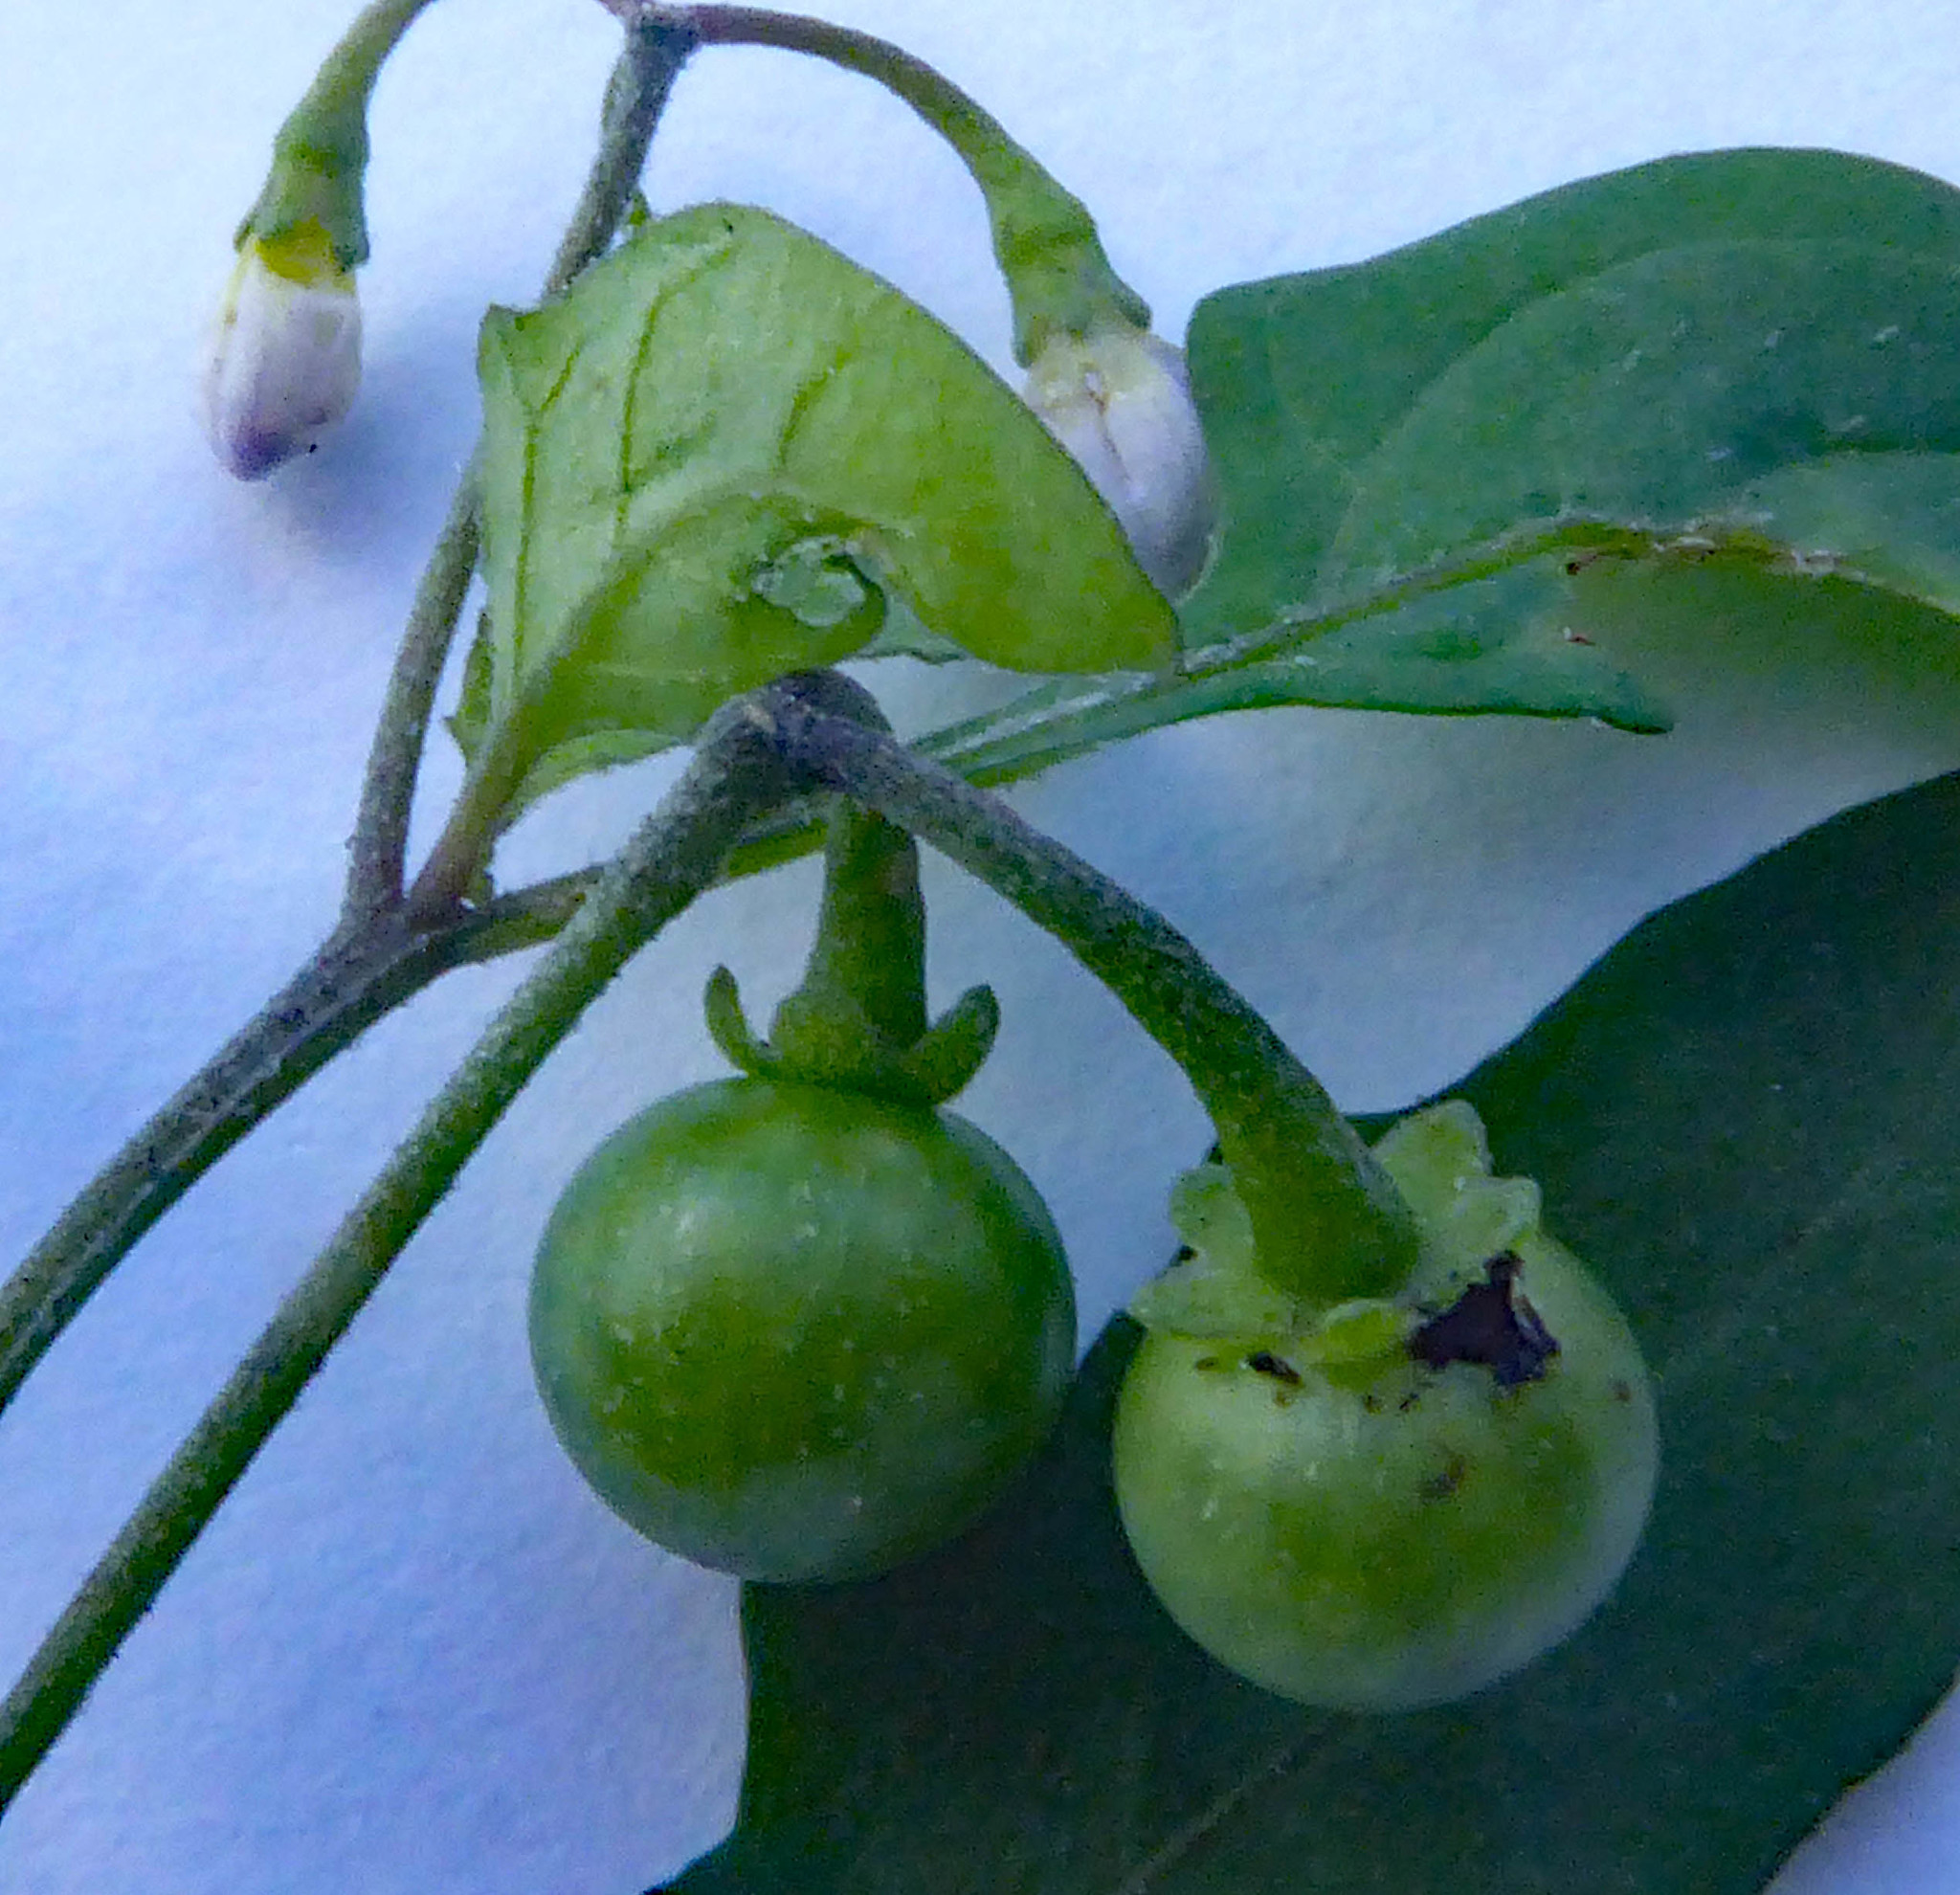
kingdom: Plantae
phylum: Tracheophyta
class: Magnoliopsida
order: Solanales
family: Solanaceae
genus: Solanum
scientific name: Solanum opacum
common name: Green-berry nightshade
